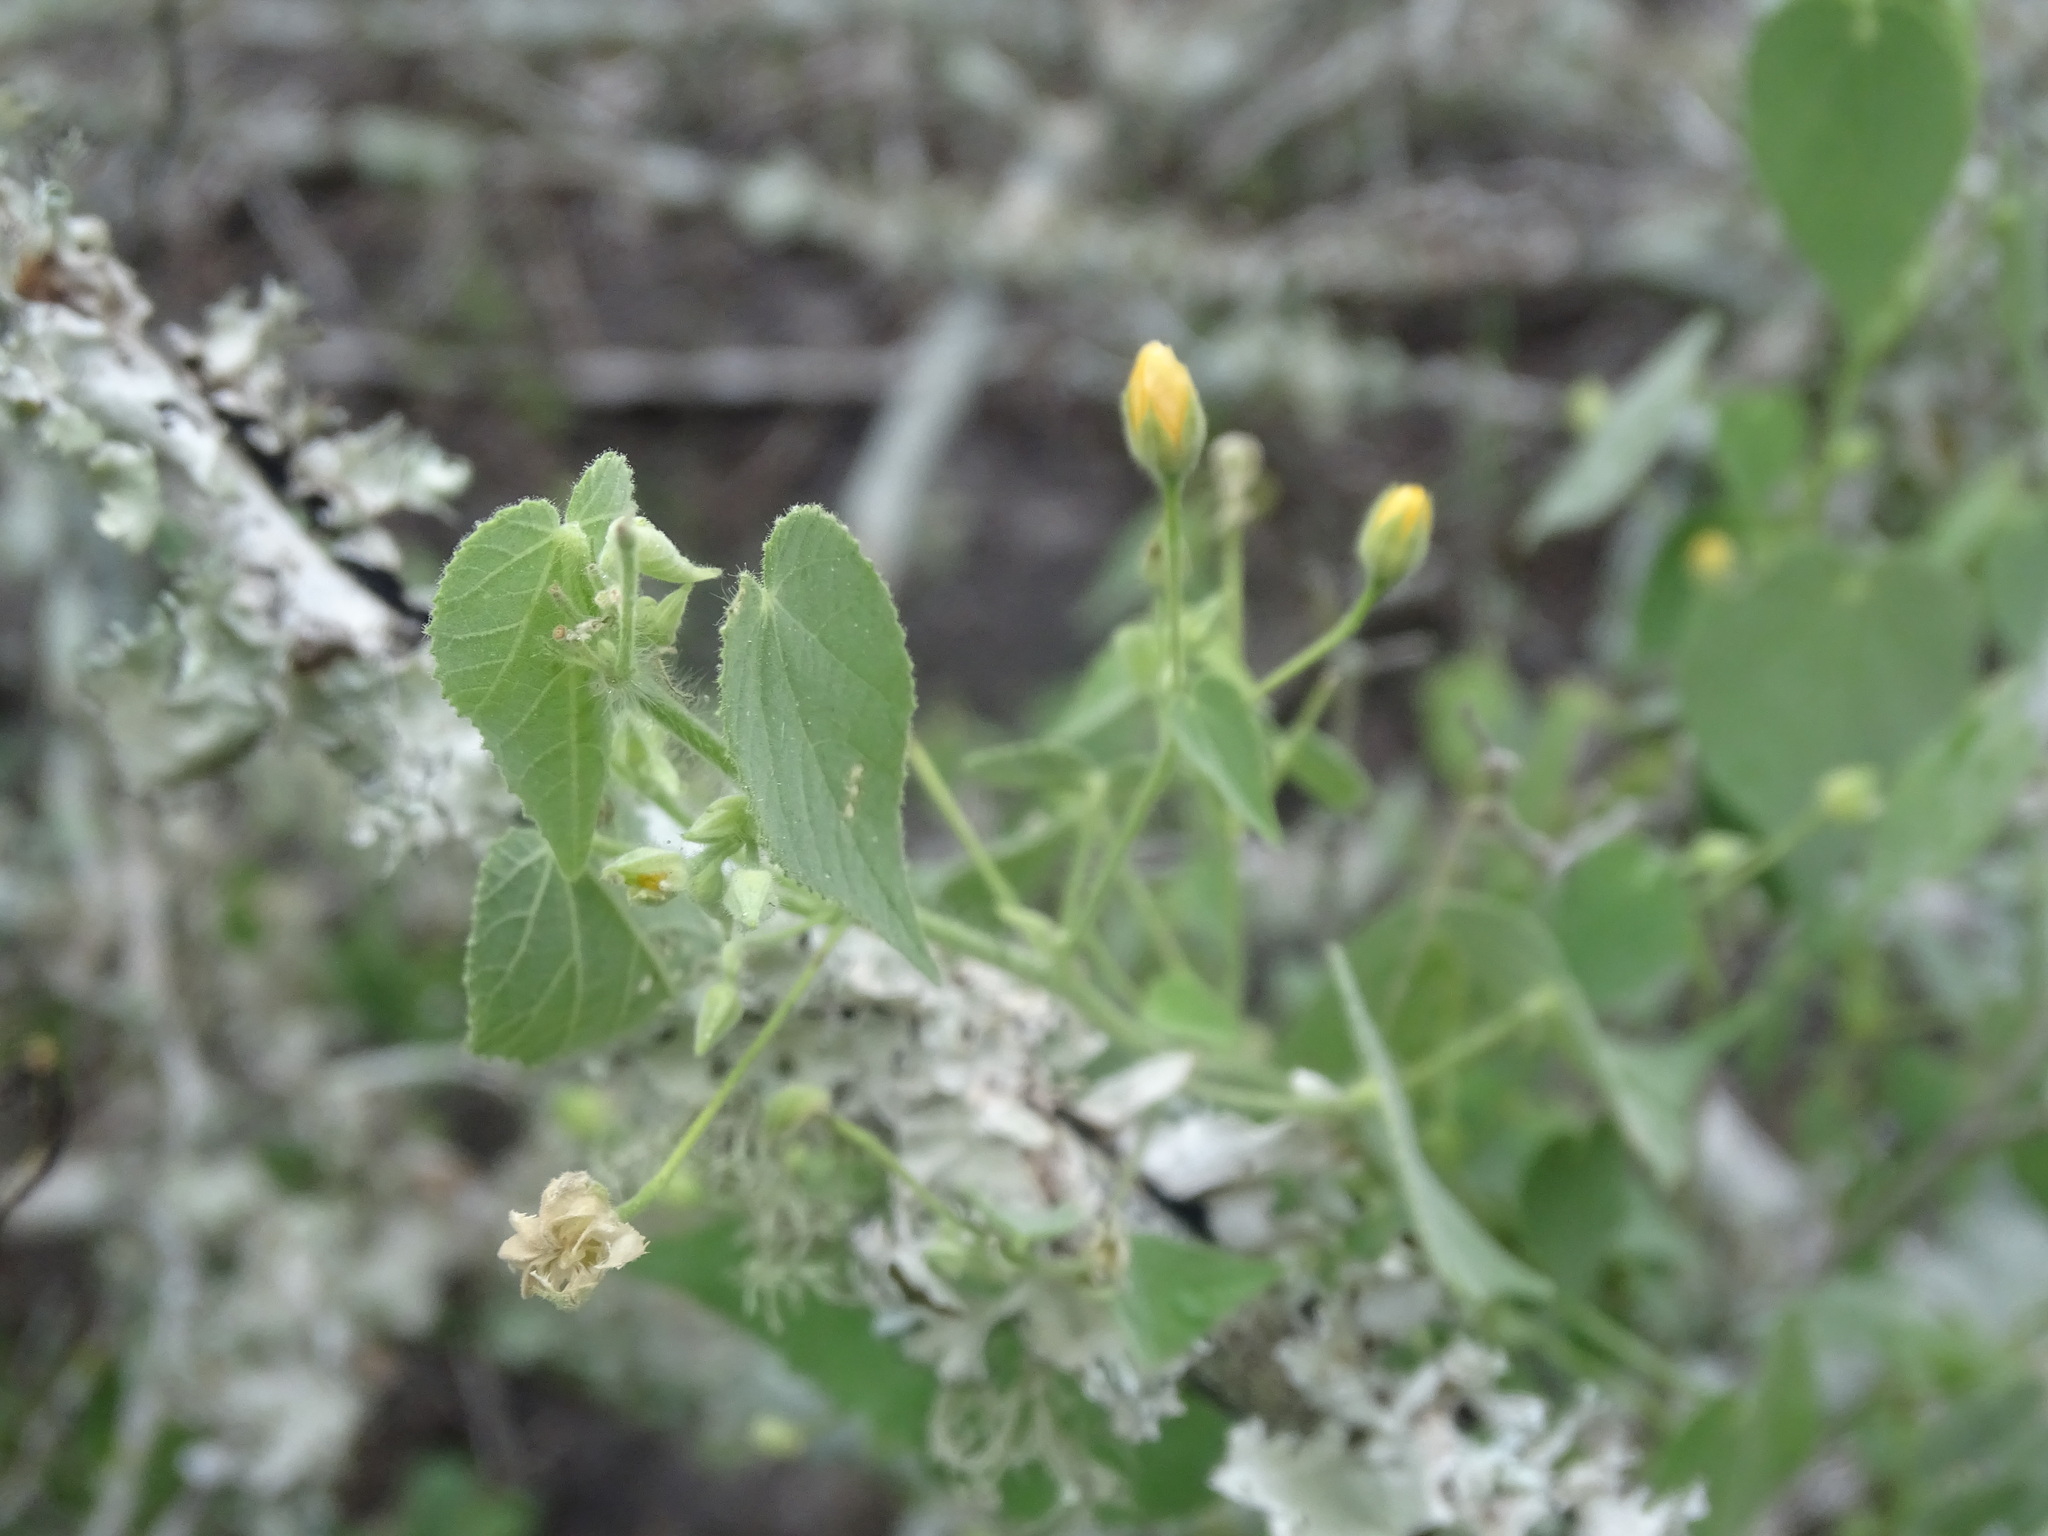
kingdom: Plantae
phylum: Tracheophyta
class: Magnoliopsida
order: Malvales
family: Malvaceae
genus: Abutilon
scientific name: Abutilon viscosum
